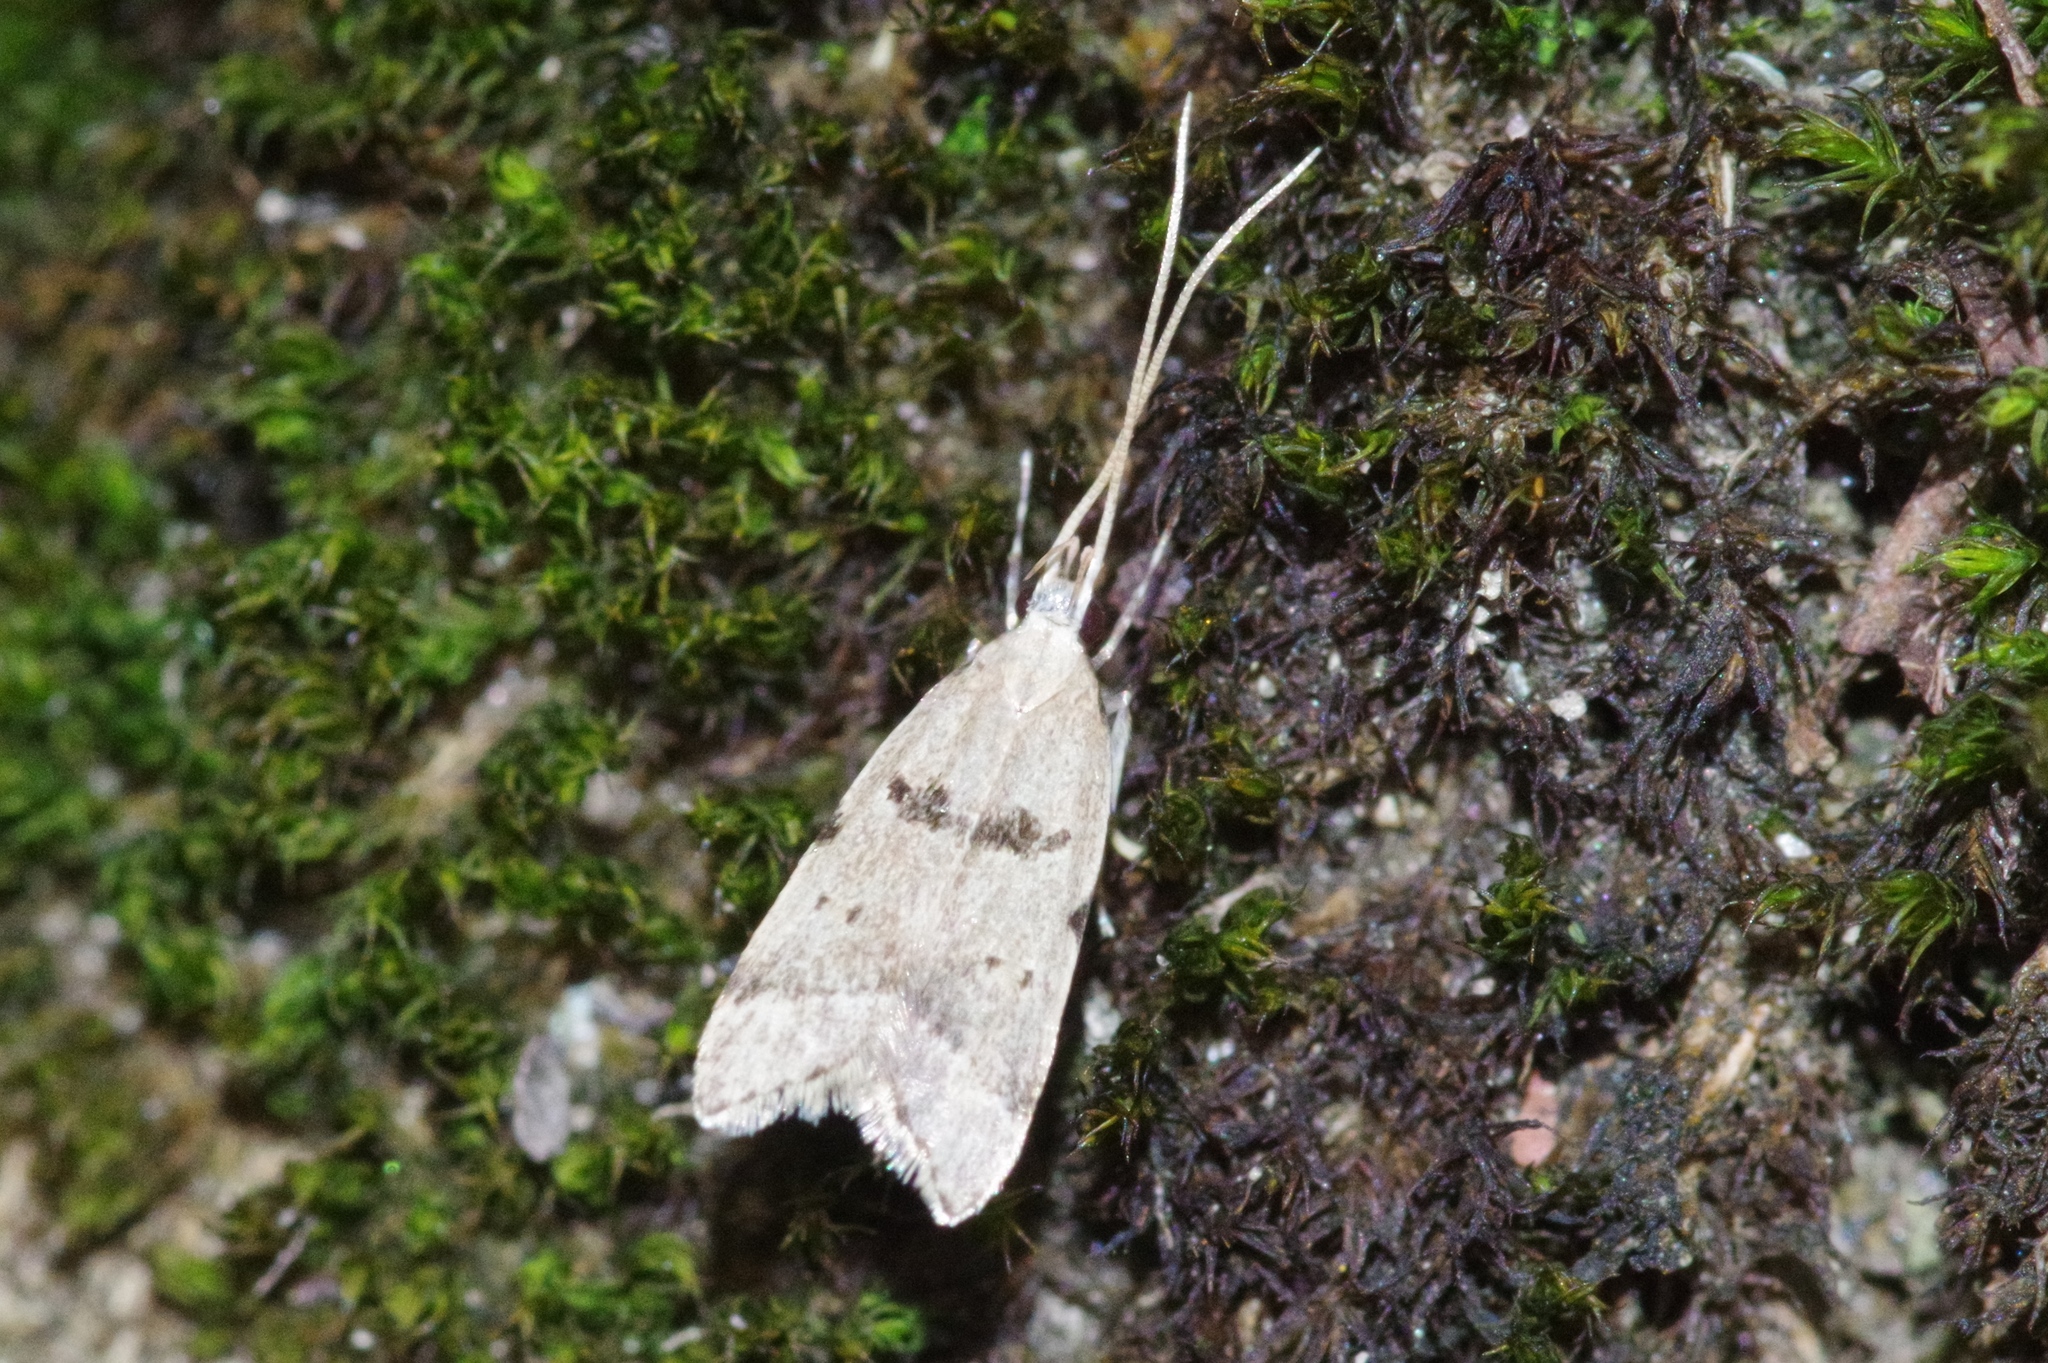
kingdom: Animalia
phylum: Arthropoda
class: Insecta
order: Lepidoptera
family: Lecithoceridae
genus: Deltoplastis
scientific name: Deltoplastis apostatis
